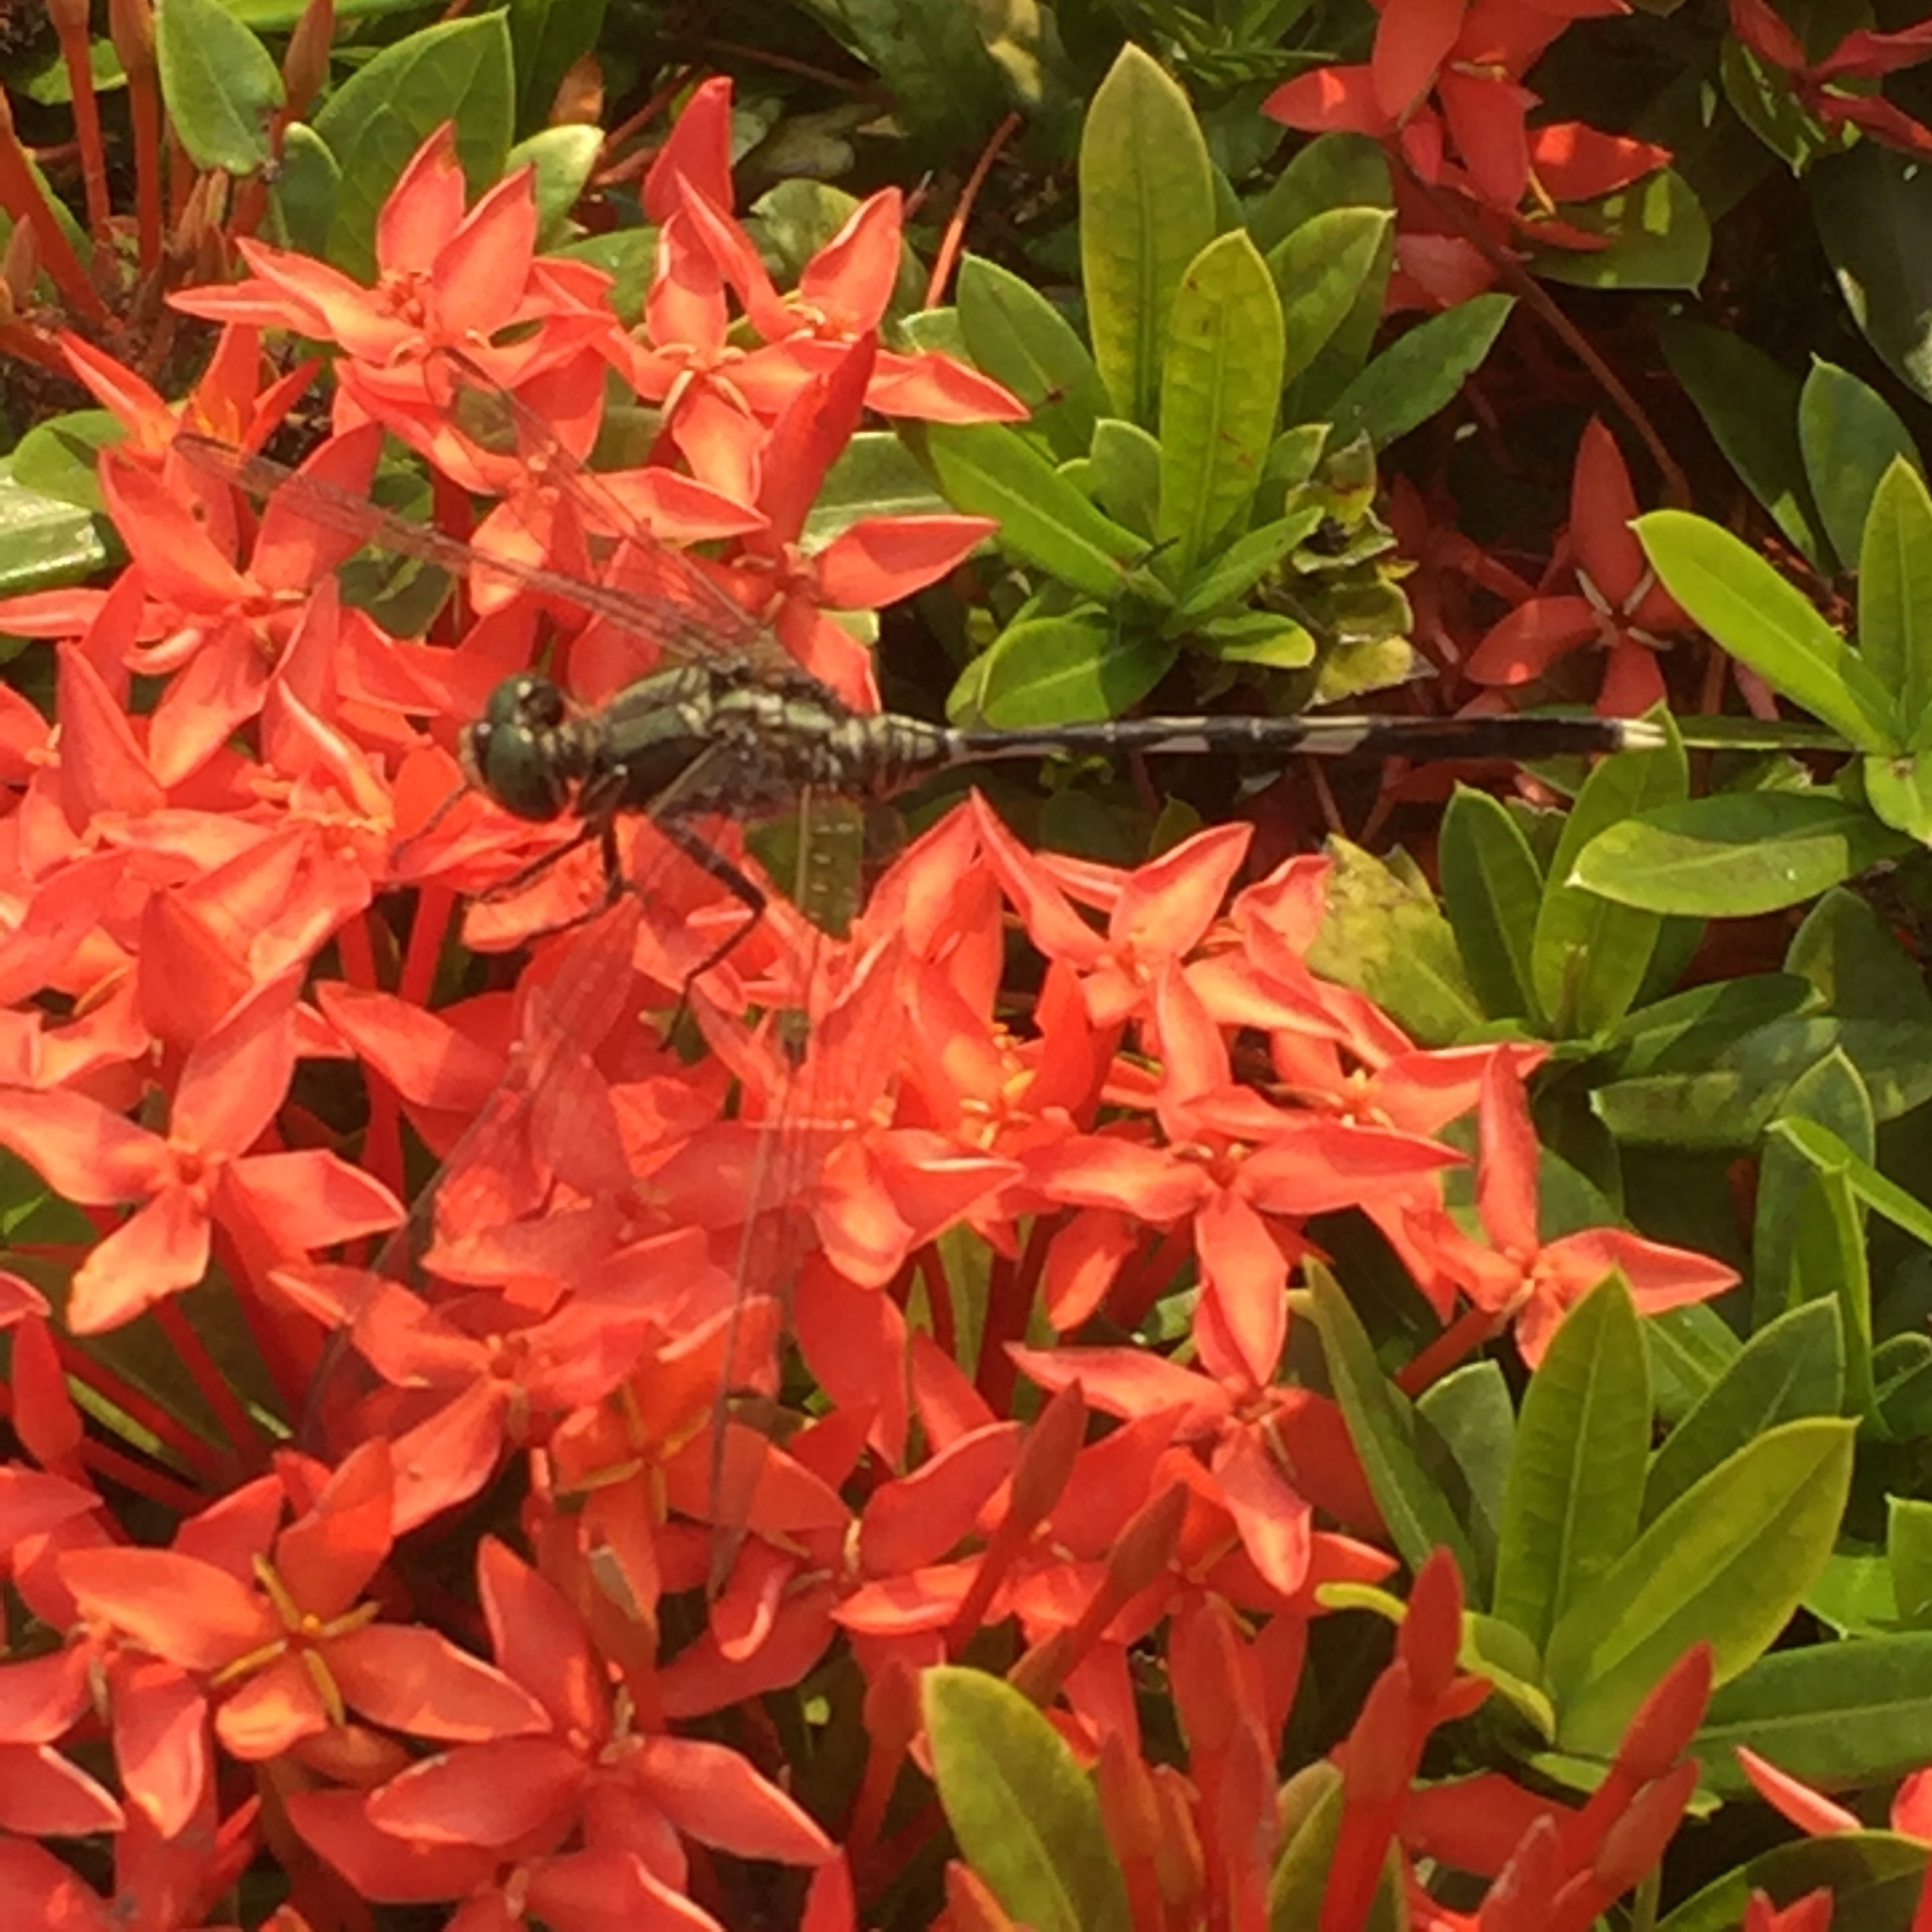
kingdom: Animalia
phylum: Arthropoda
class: Insecta
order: Odonata
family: Libellulidae
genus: Orthetrum
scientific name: Orthetrum sabina
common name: Slender skimmer
